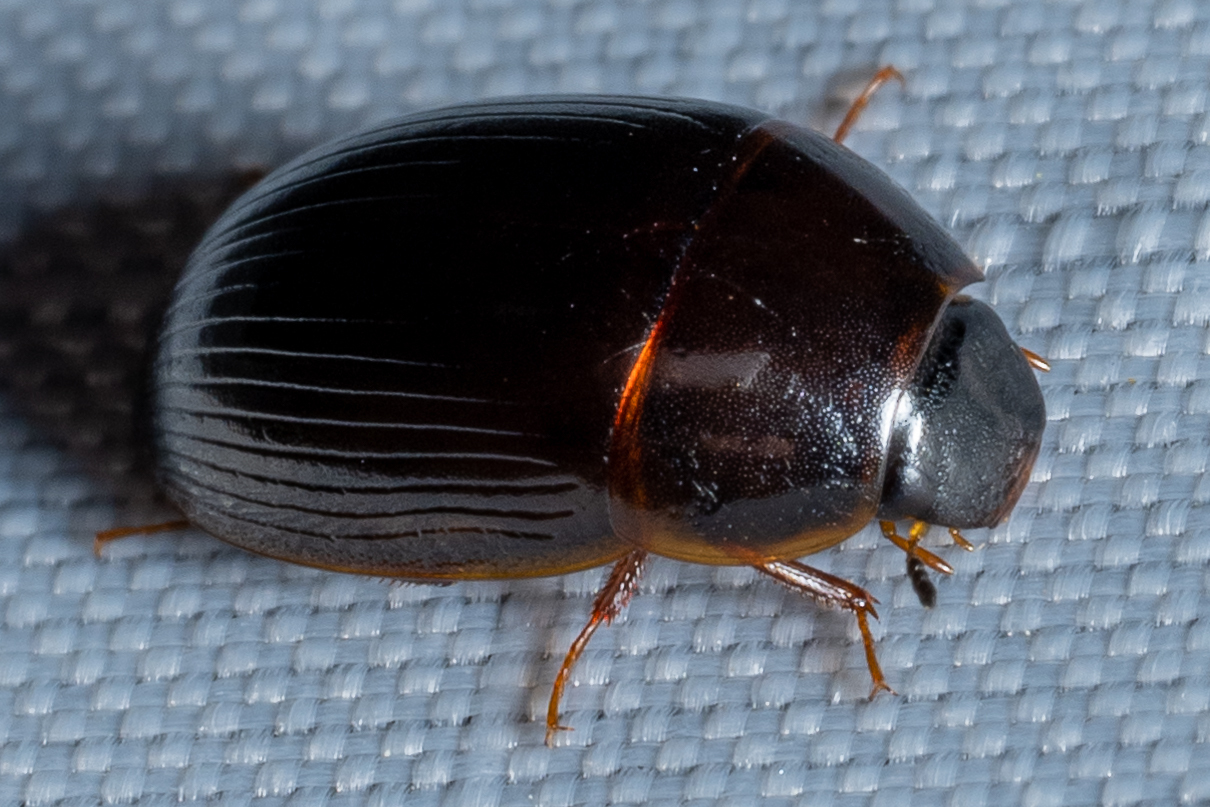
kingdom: Animalia
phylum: Arthropoda
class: Insecta
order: Coleoptera
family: Hydrophilidae
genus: Cymbiodyta
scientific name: Cymbiodyta bifida
